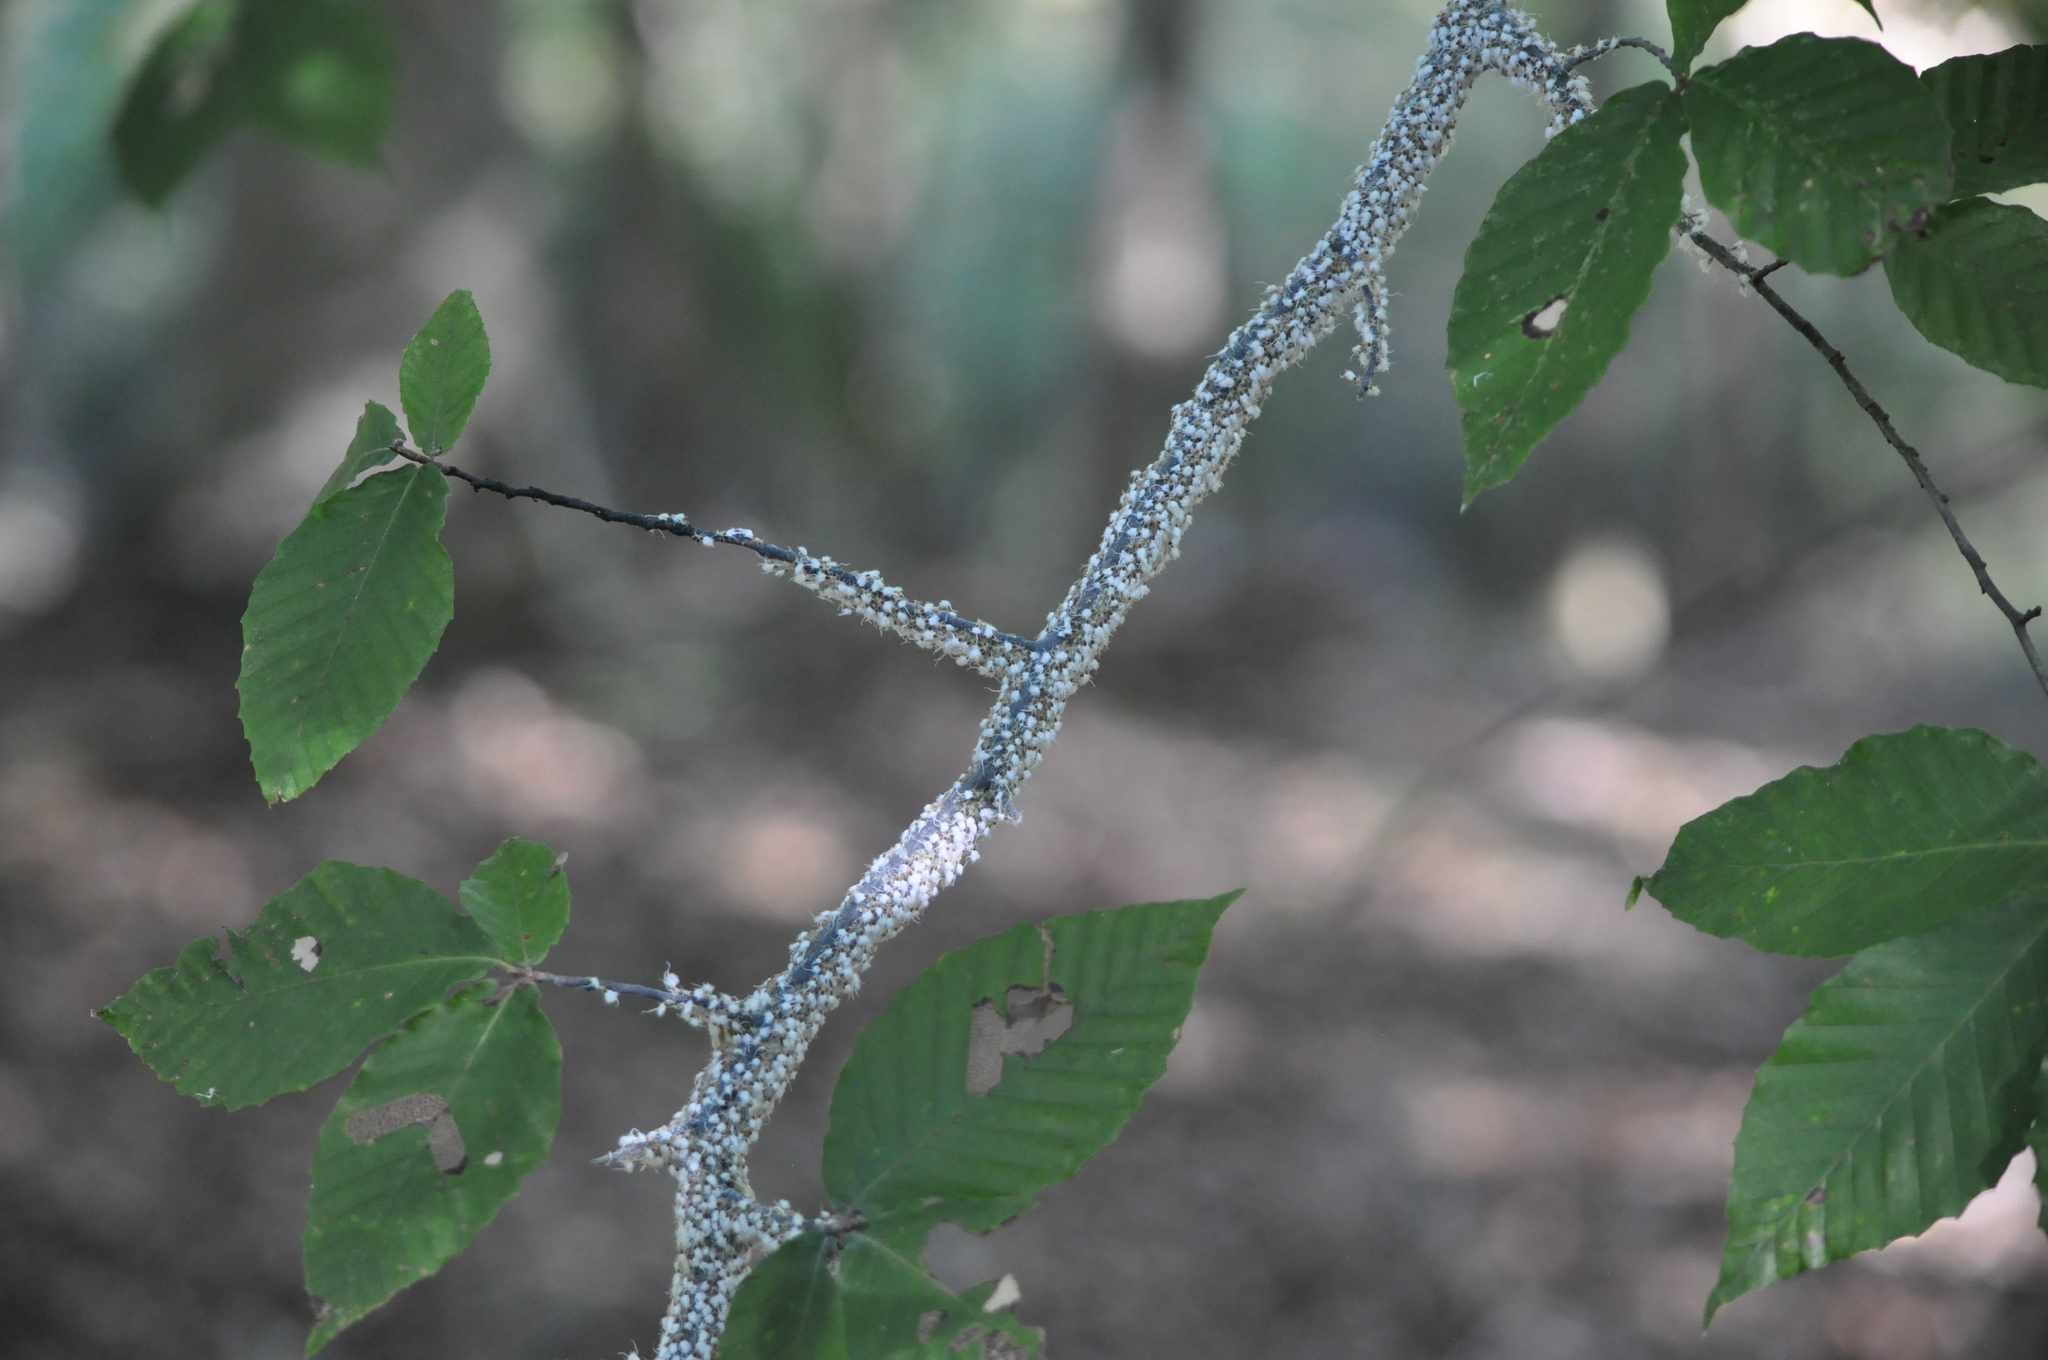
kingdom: Animalia
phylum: Arthropoda
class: Insecta
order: Hemiptera
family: Aphididae
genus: Grylloprociphilus
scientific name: Grylloprociphilus imbricator
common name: Beech blight aphid
